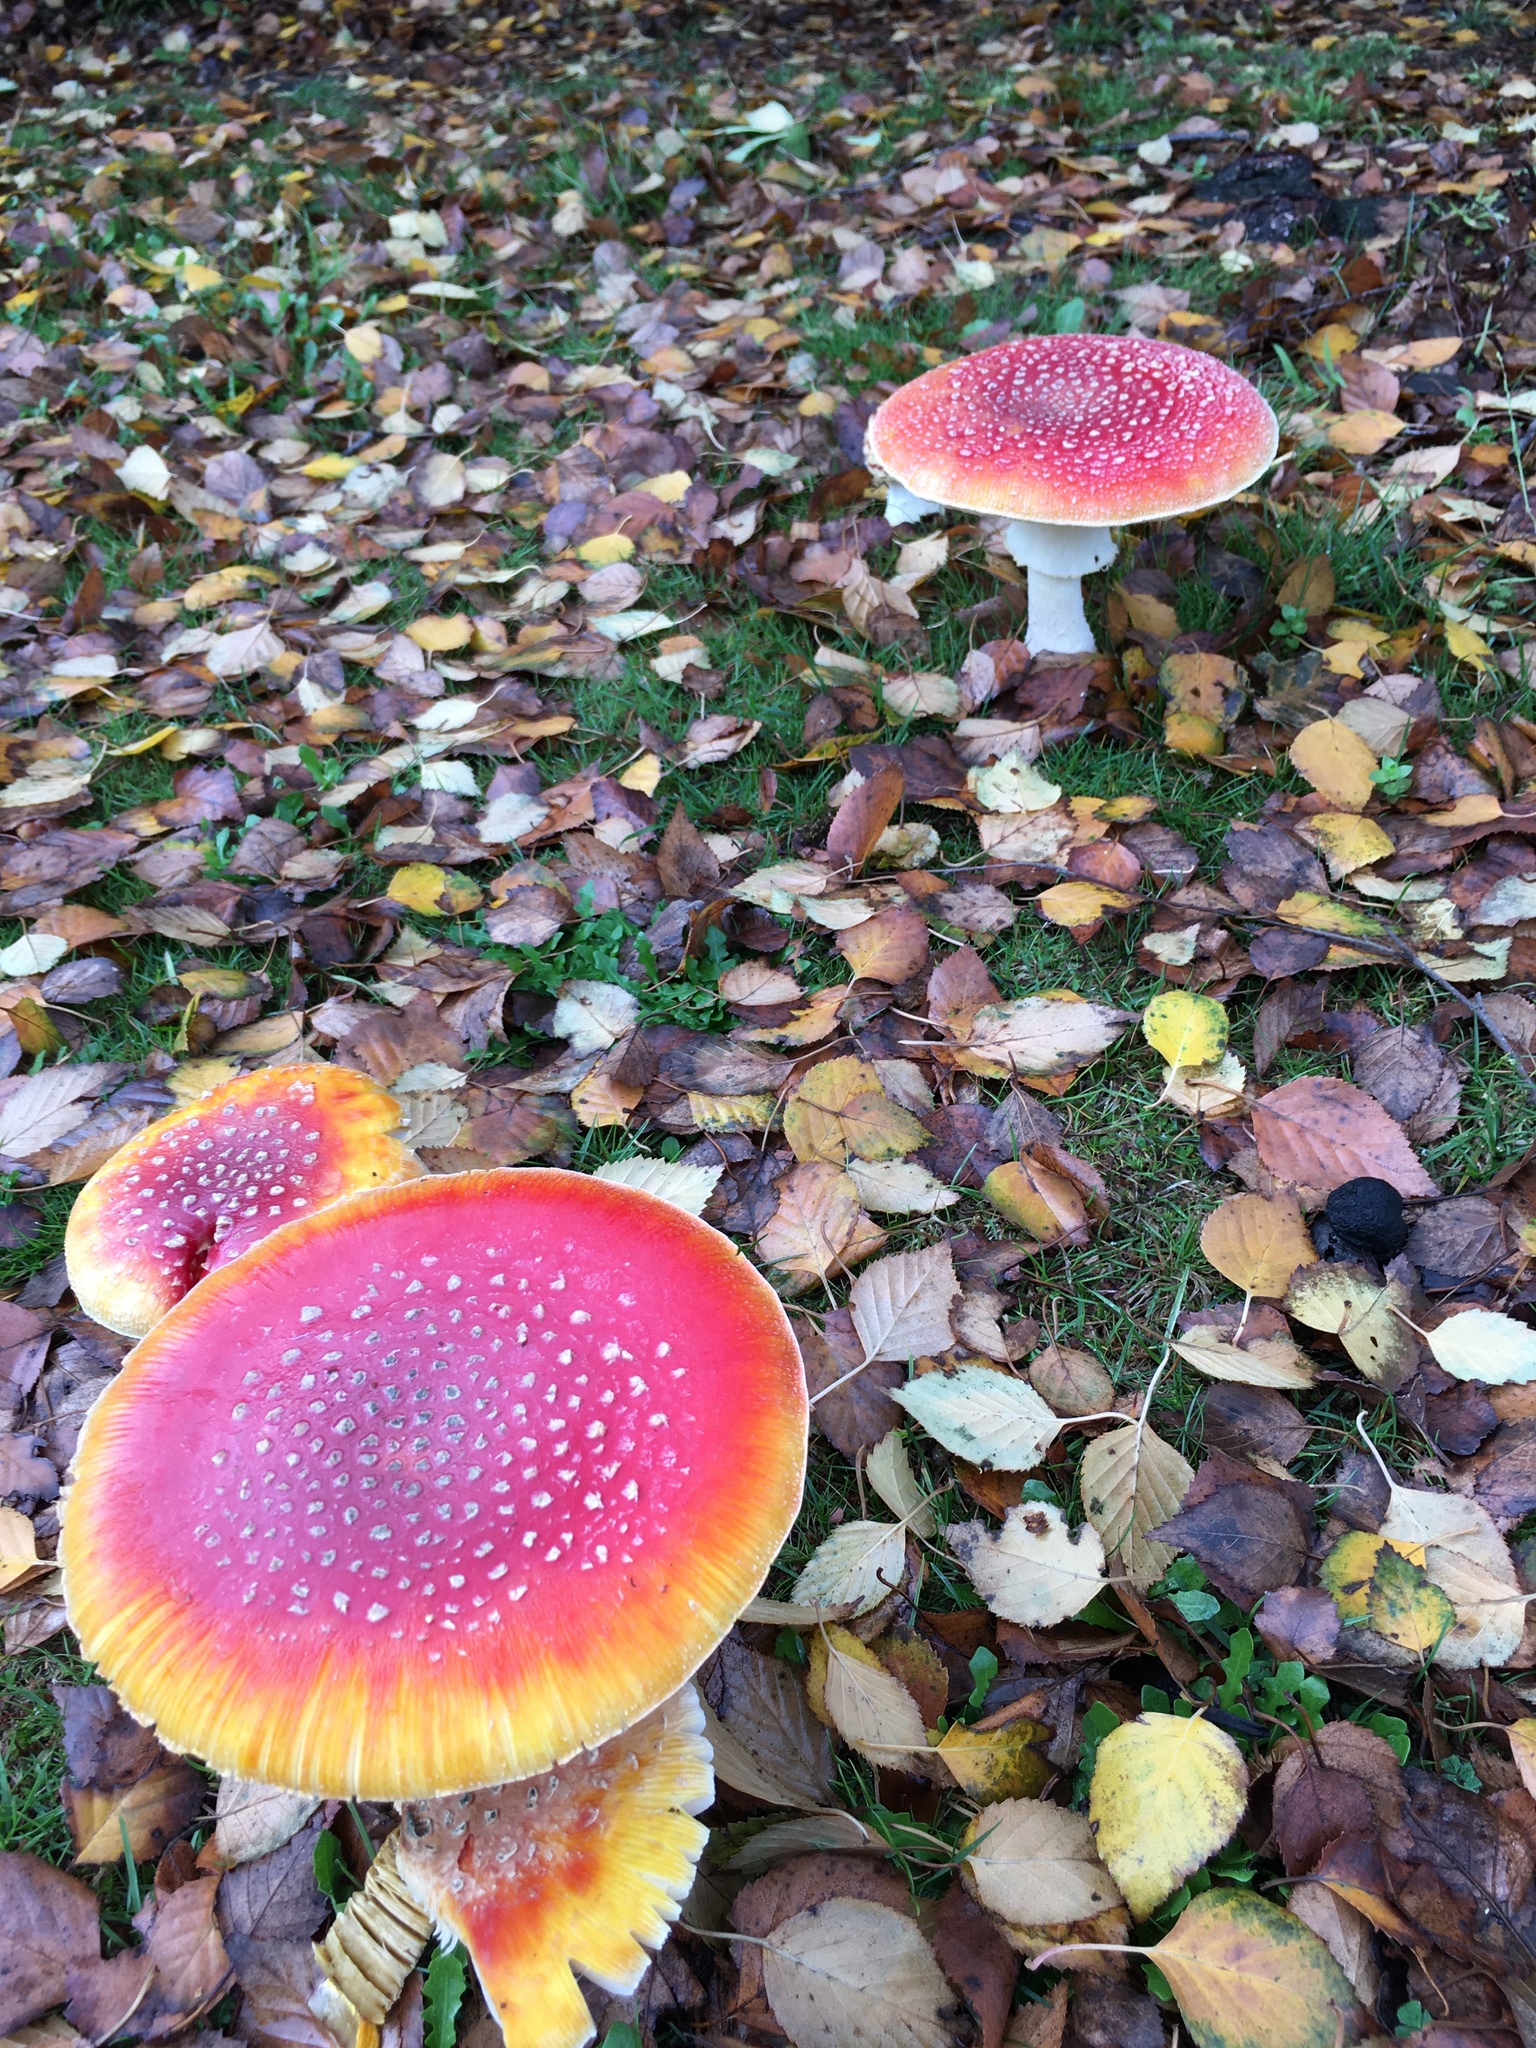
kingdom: Fungi
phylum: Basidiomycota
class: Agaricomycetes
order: Agaricales
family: Amanitaceae
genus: Amanita
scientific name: Amanita muscaria
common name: Fly agaric
